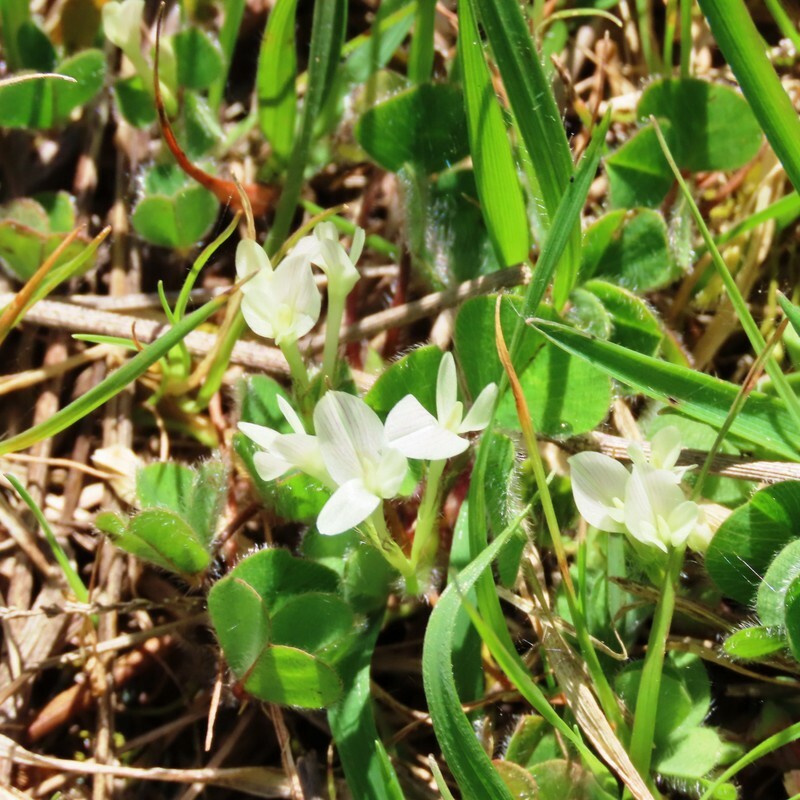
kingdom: Plantae
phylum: Tracheophyta
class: Magnoliopsida
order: Fabales
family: Fabaceae
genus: Trifolium
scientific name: Trifolium subterraneum
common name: Subterranean clover
